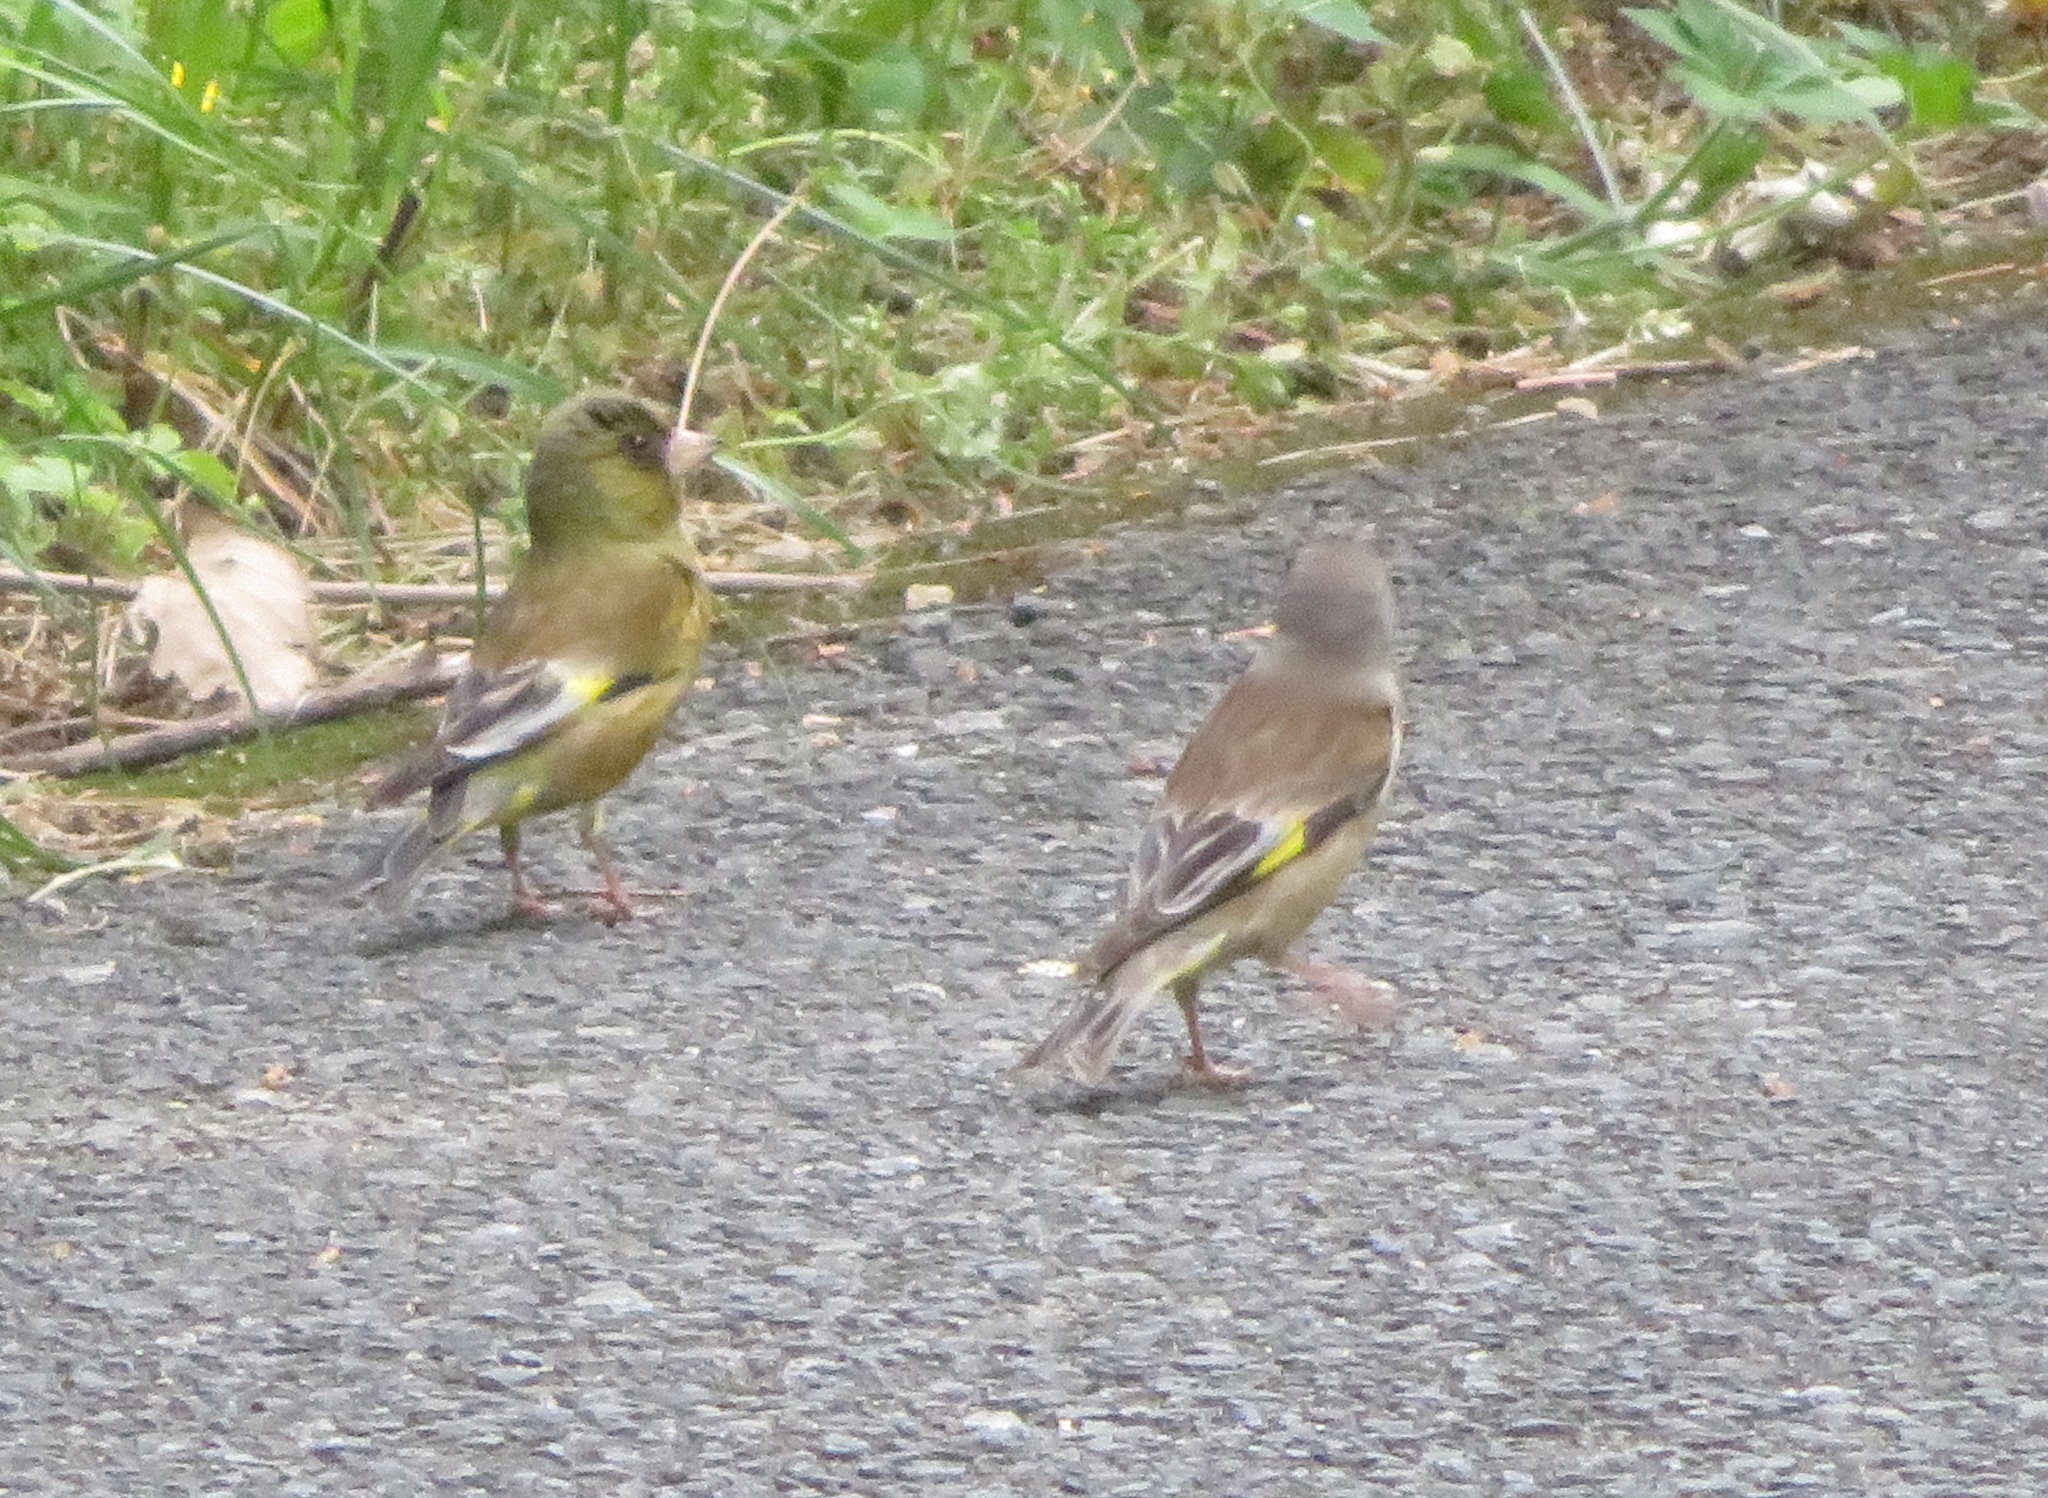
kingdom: Plantae
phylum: Tracheophyta
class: Liliopsida
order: Poales
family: Poaceae
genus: Chloris
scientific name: Chloris sinica
